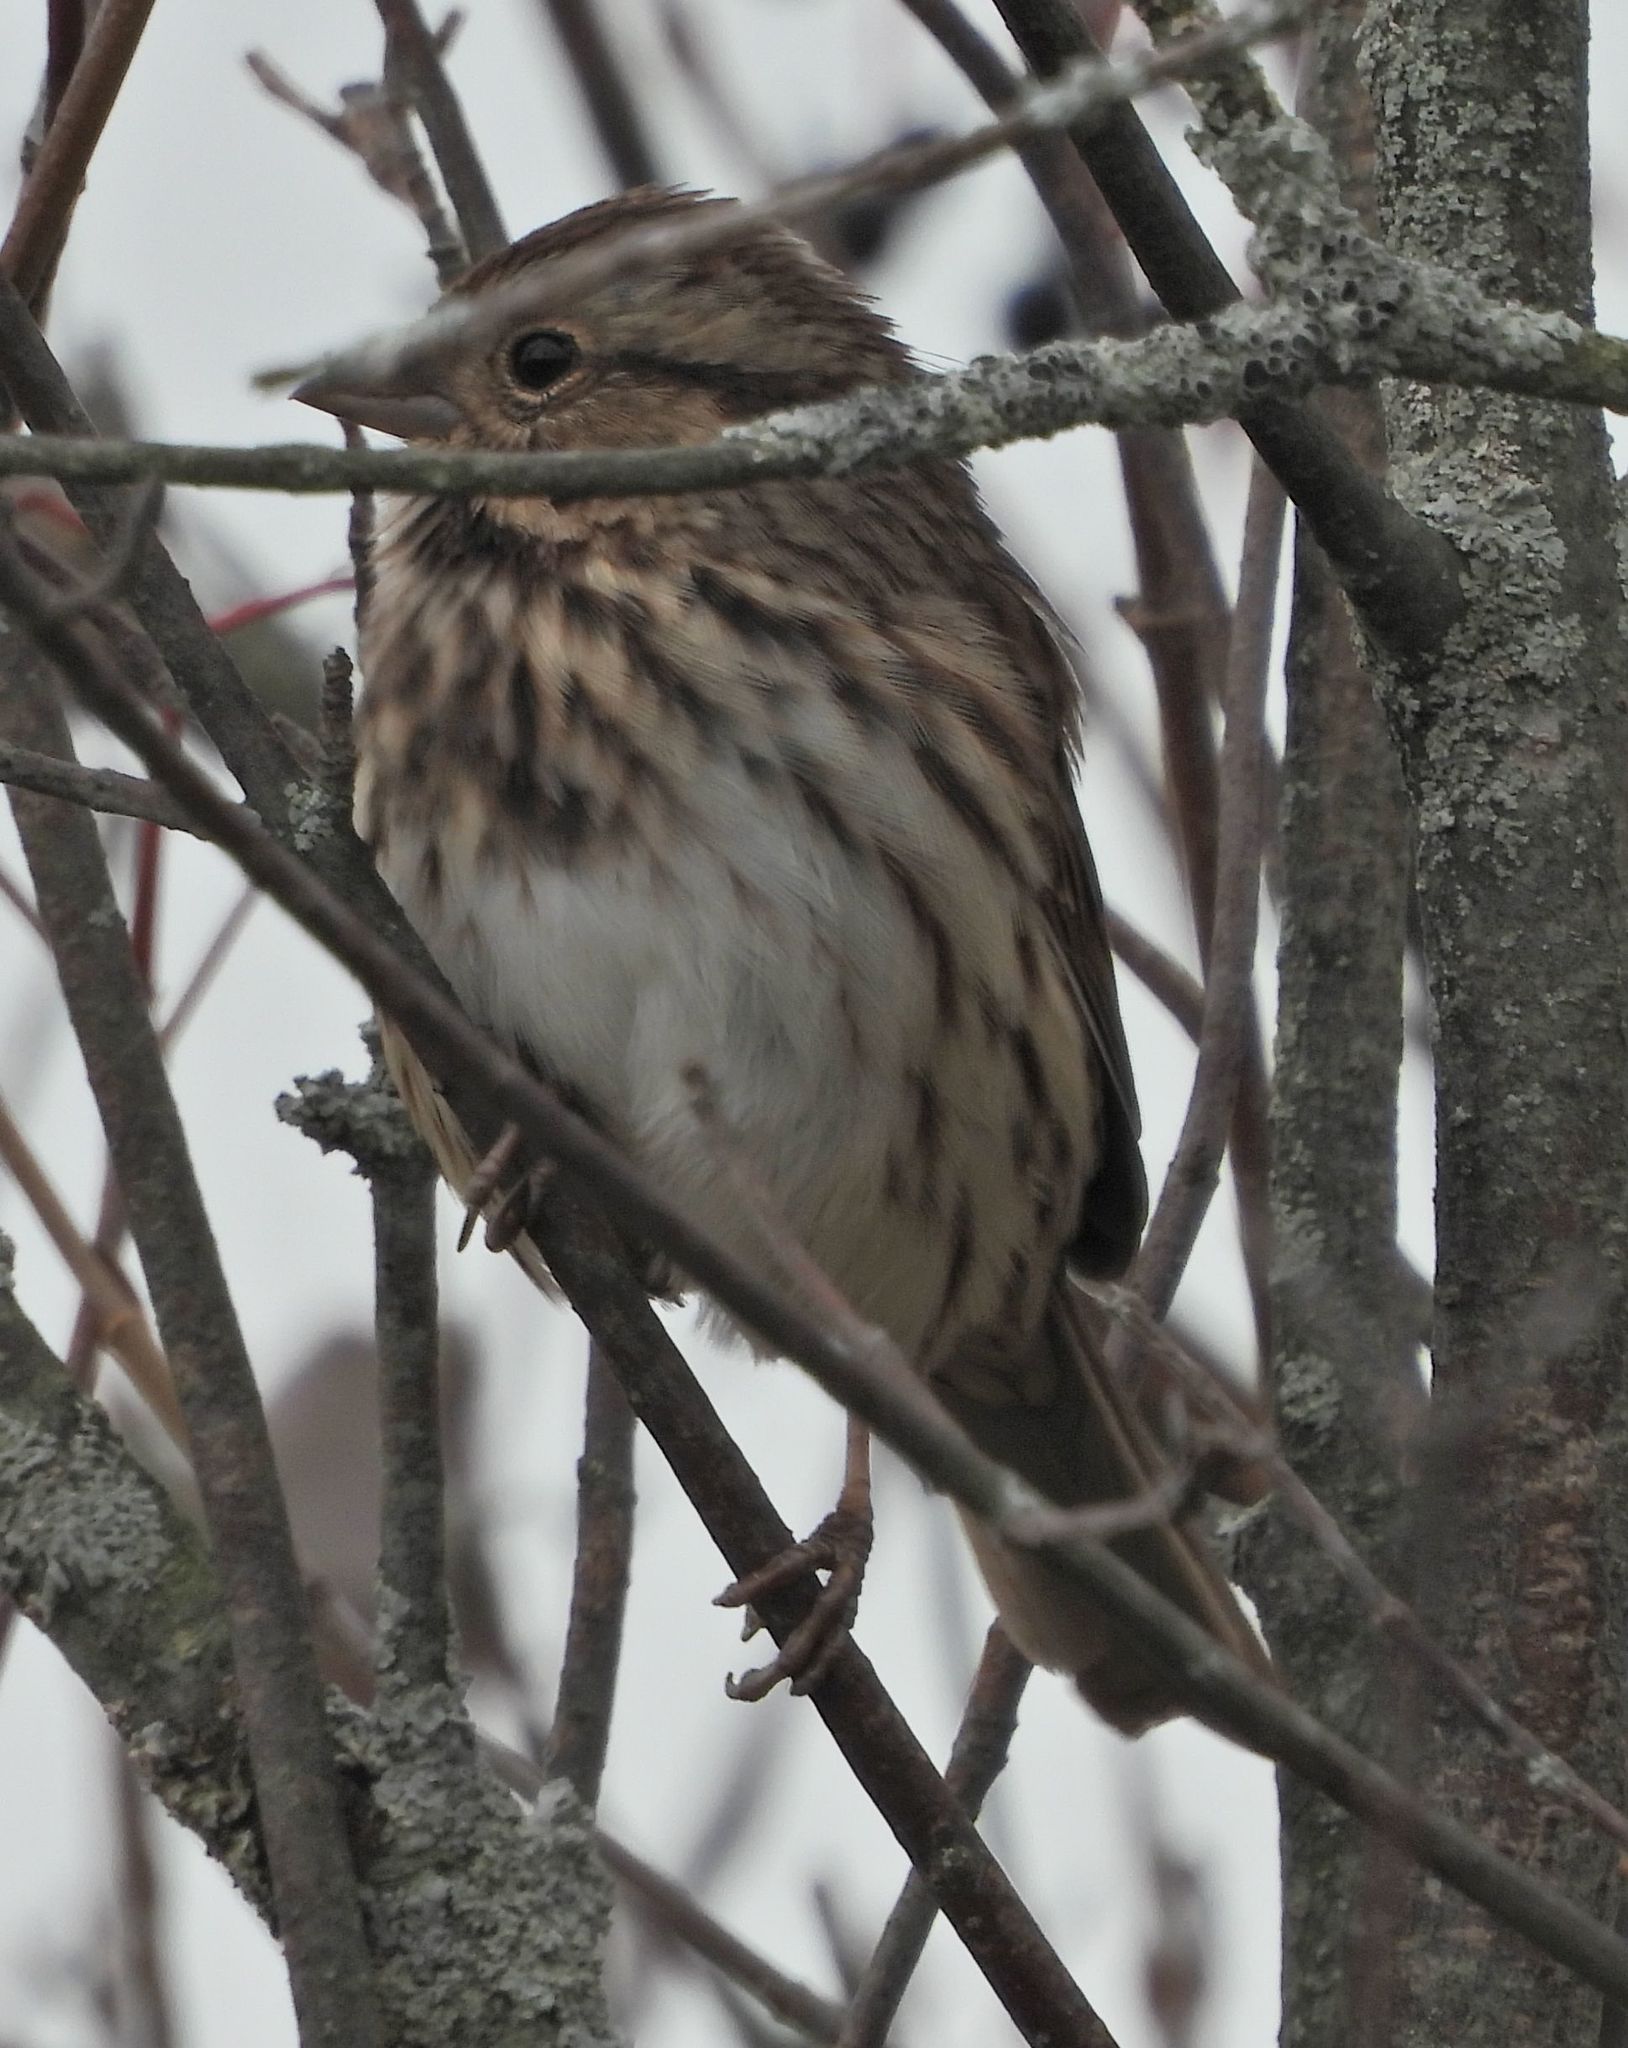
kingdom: Animalia
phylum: Chordata
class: Aves
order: Passeriformes
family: Passerellidae
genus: Melospiza
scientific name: Melospiza melodia
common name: Song sparrow
